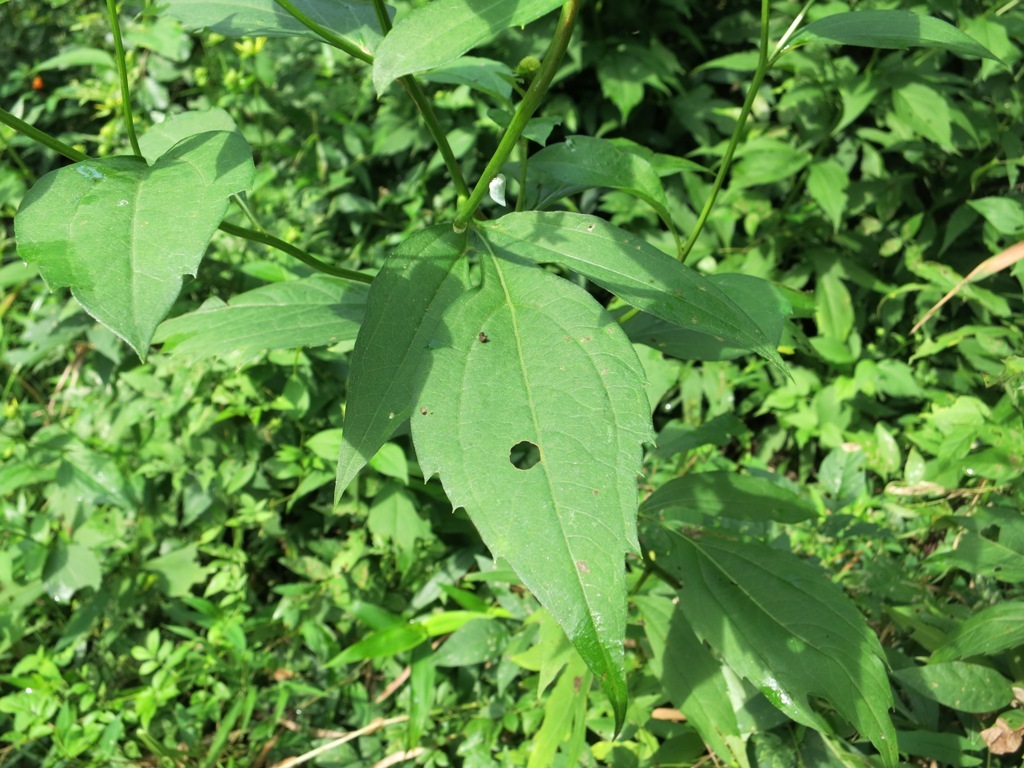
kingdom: Plantae
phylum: Tracheophyta
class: Magnoliopsida
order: Asterales
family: Asteraceae
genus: Rudbeckia
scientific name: Rudbeckia laciniata
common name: Coneflower
